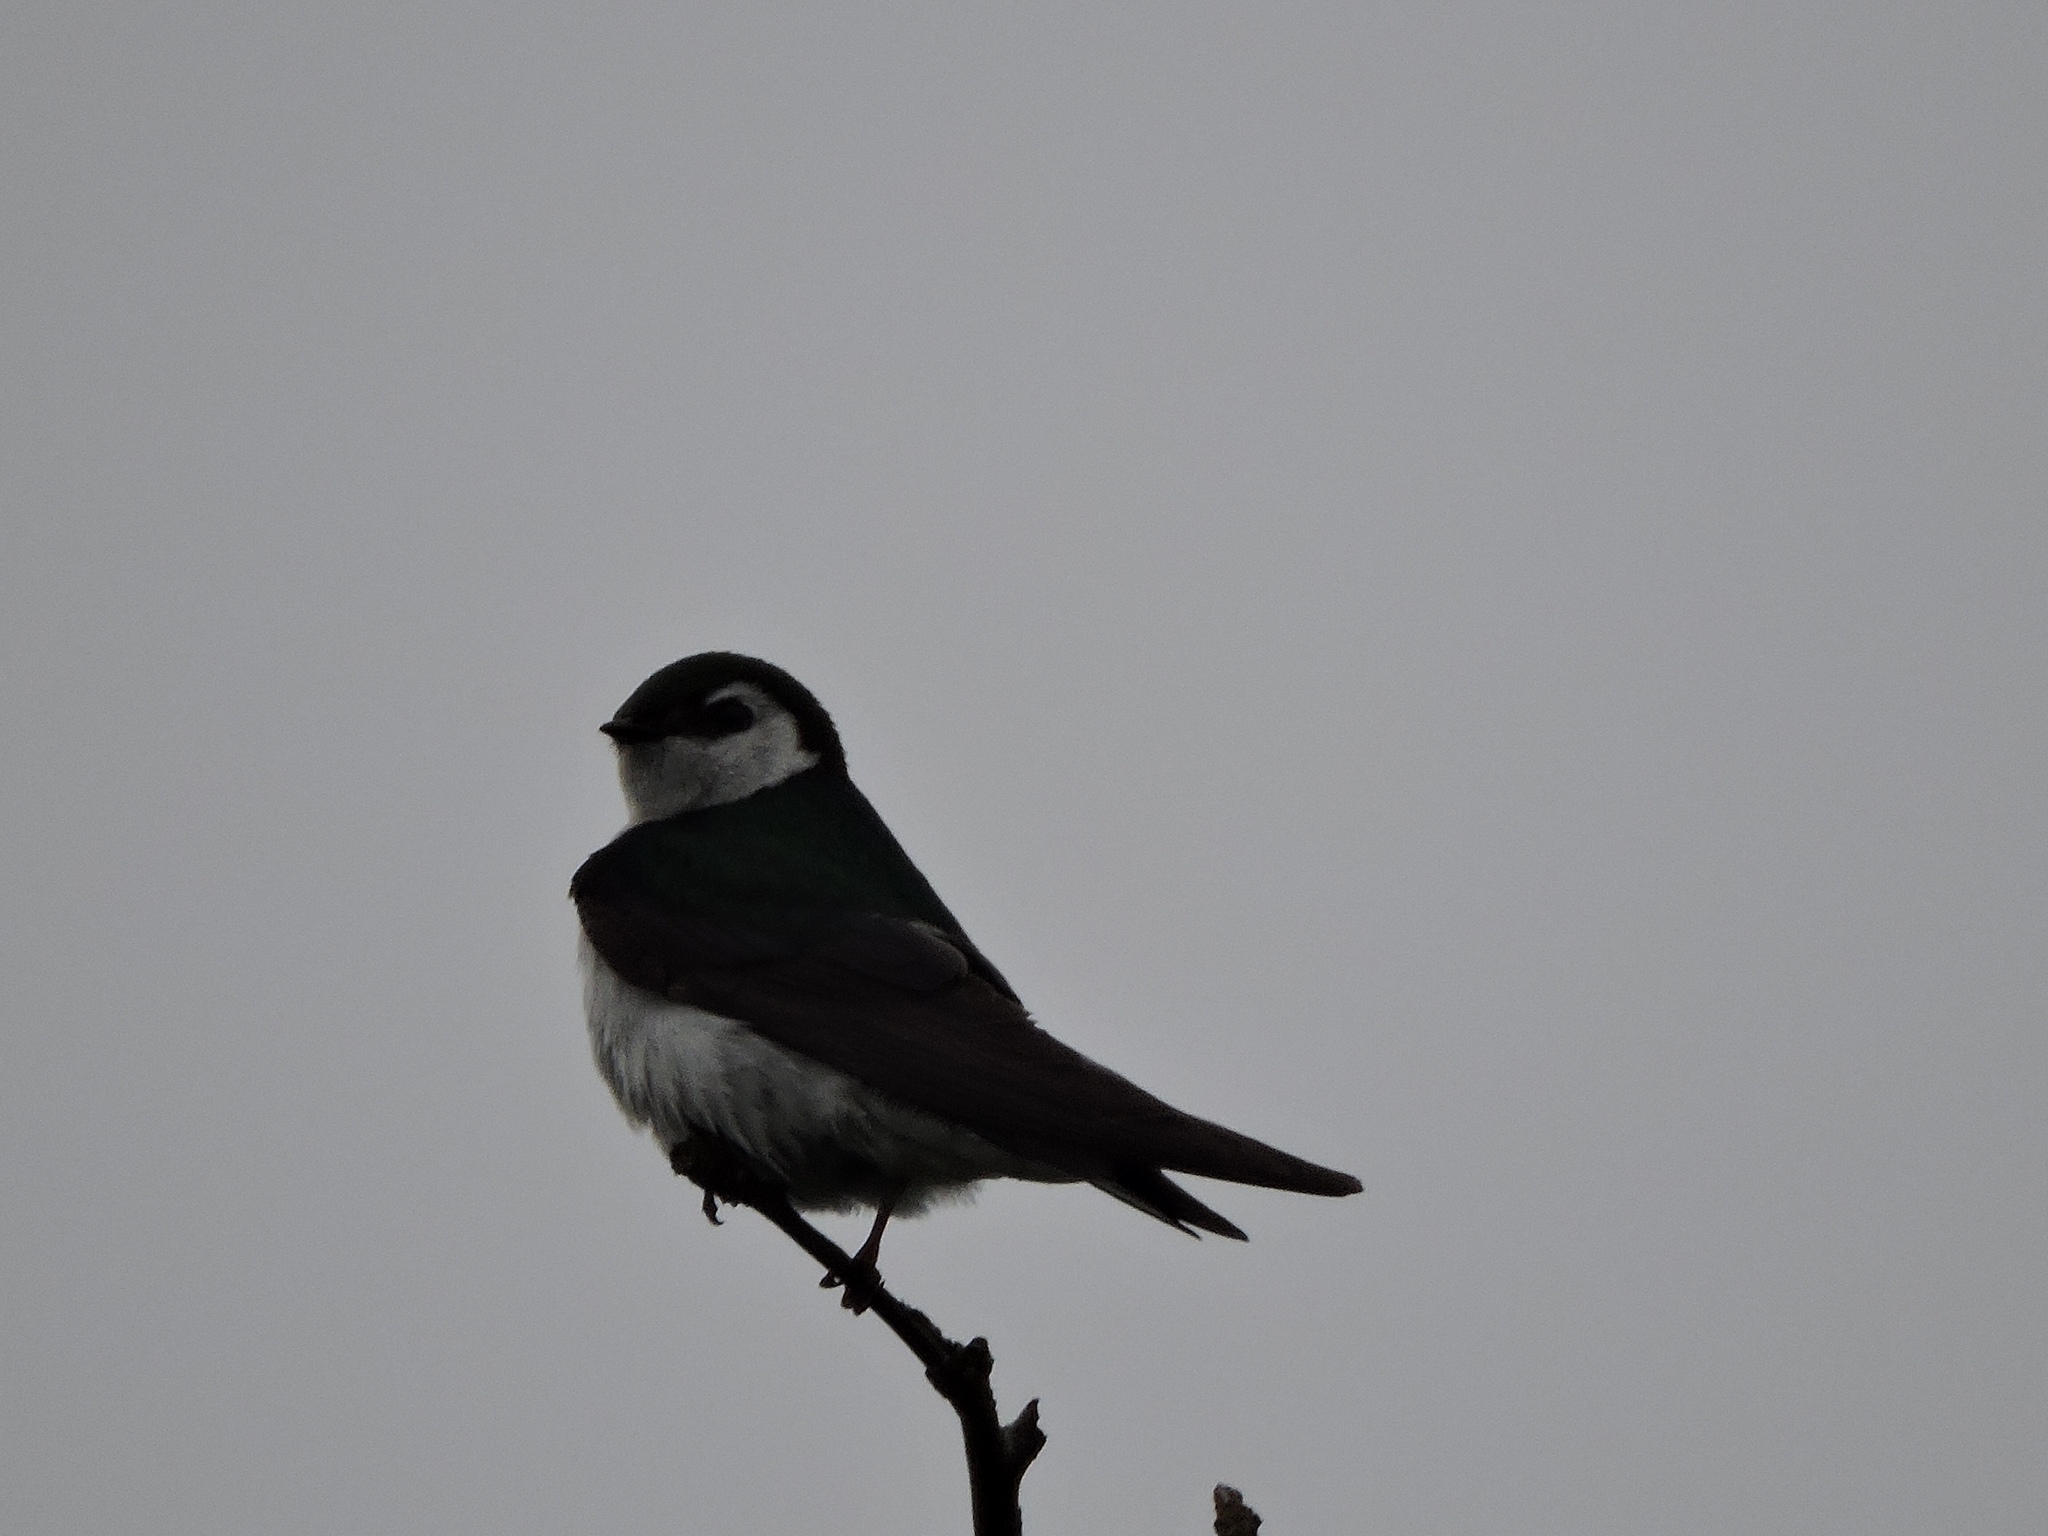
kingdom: Animalia
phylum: Chordata
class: Aves
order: Passeriformes
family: Hirundinidae
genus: Tachycineta
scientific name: Tachycineta thalassina
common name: Violet-green swallow
